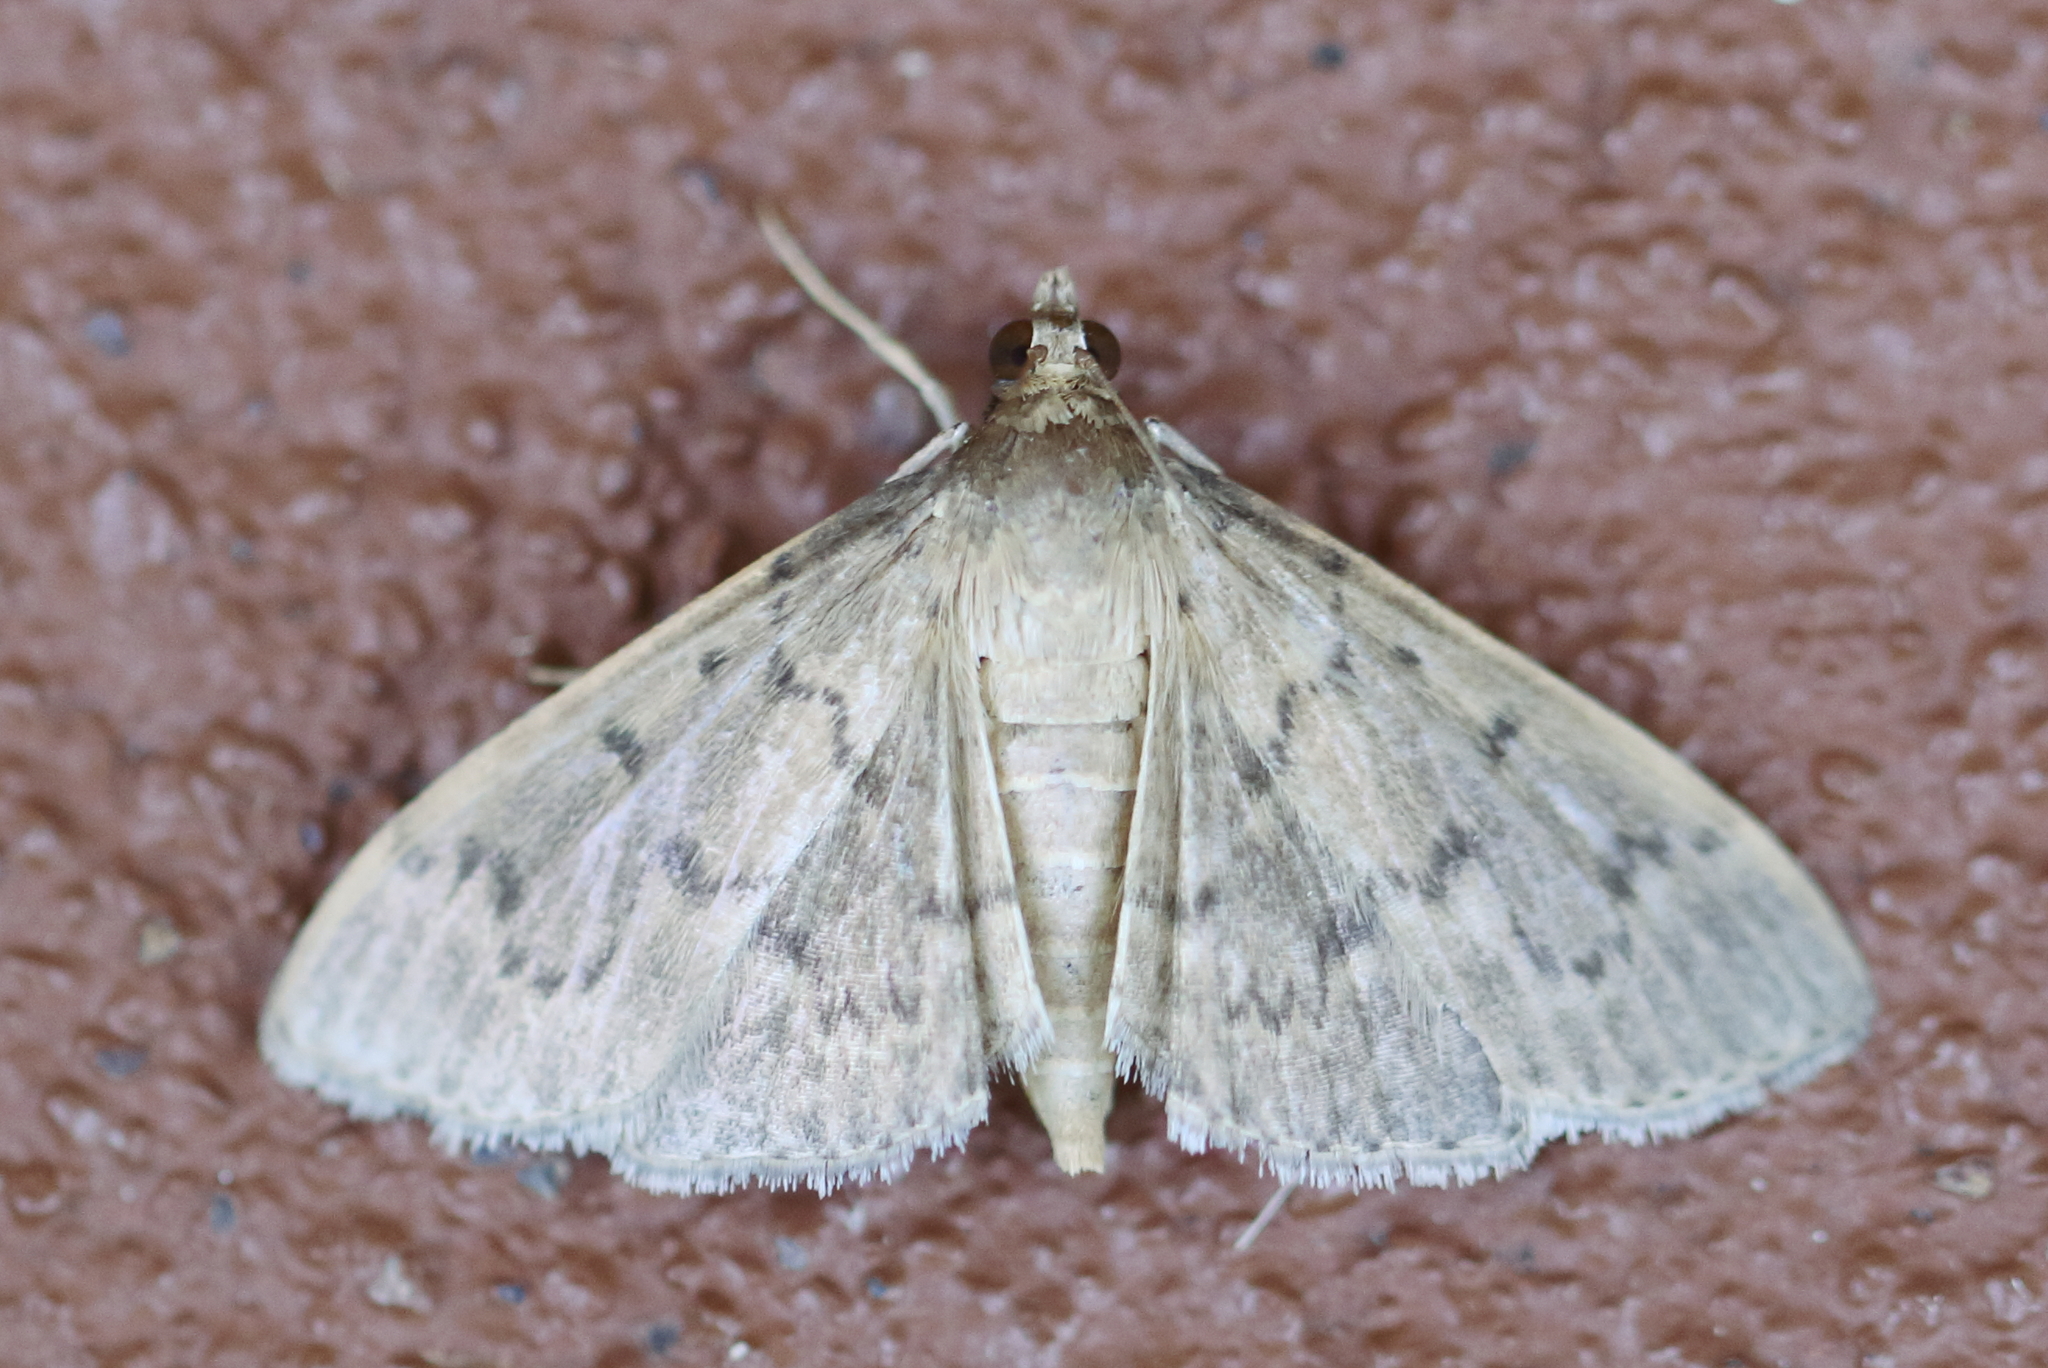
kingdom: Animalia
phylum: Arthropoda
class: Insecta
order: Lepidoptera
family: Crambidae
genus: Herpetogramma
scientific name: Herpetogramma licarsisalis
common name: Grass webworm
